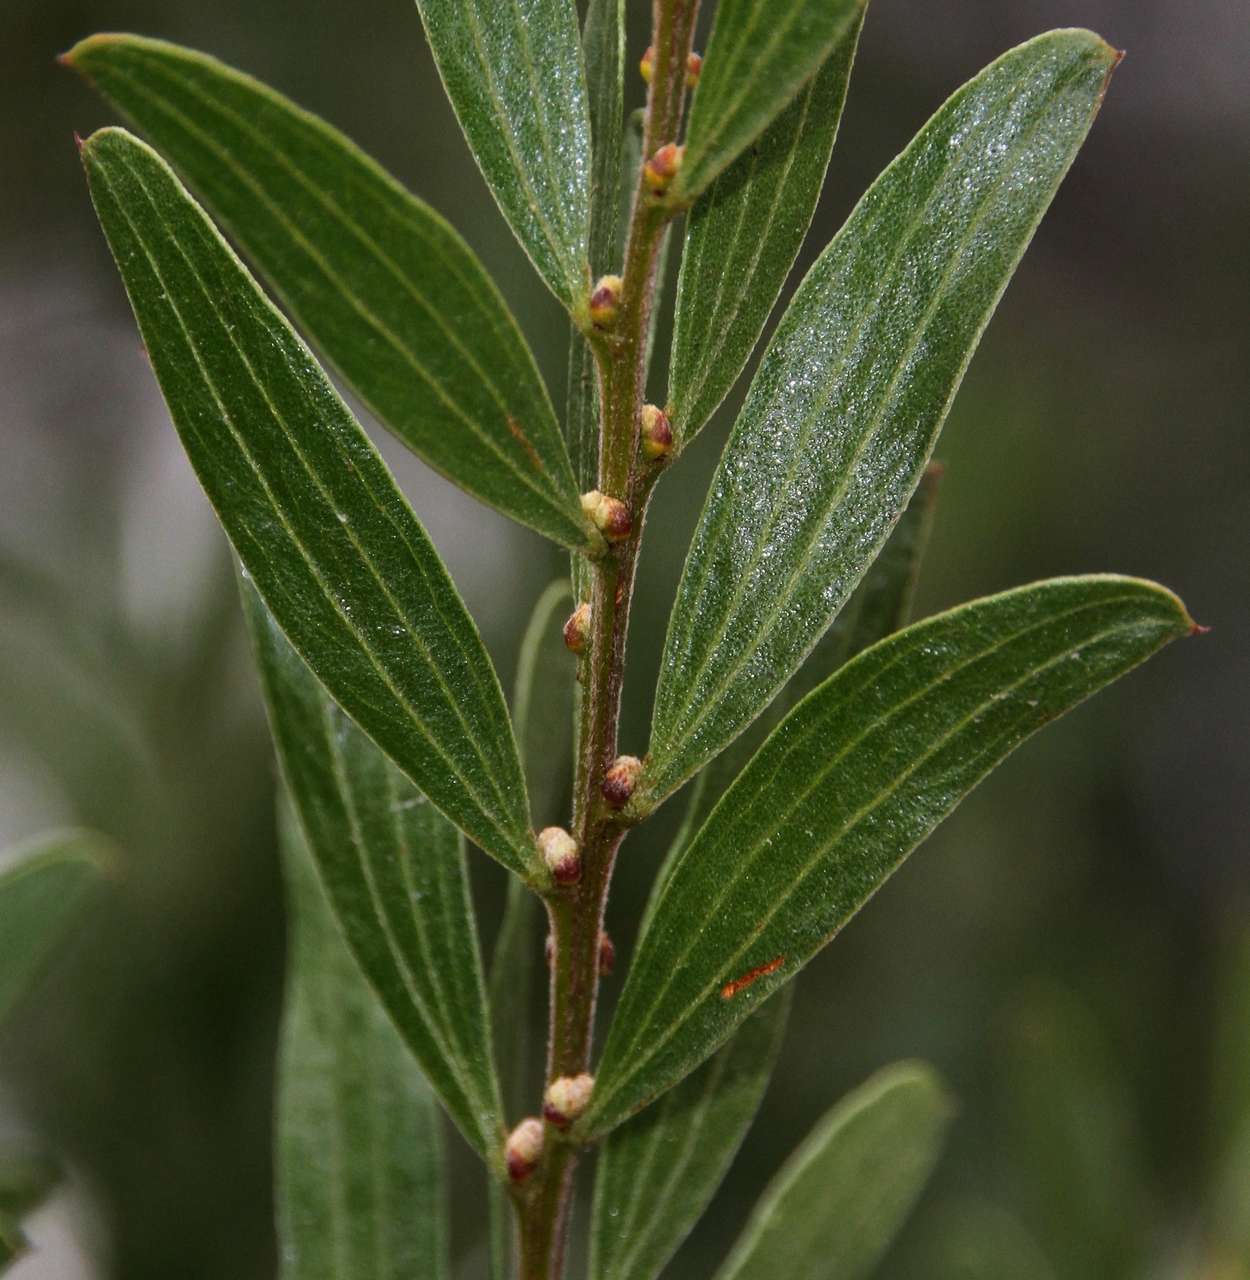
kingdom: Plantae
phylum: Tracheophyta
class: Magnoliopsida
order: Fabales
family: Fabaceae
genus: Acacia
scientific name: Acacia rostriformis
